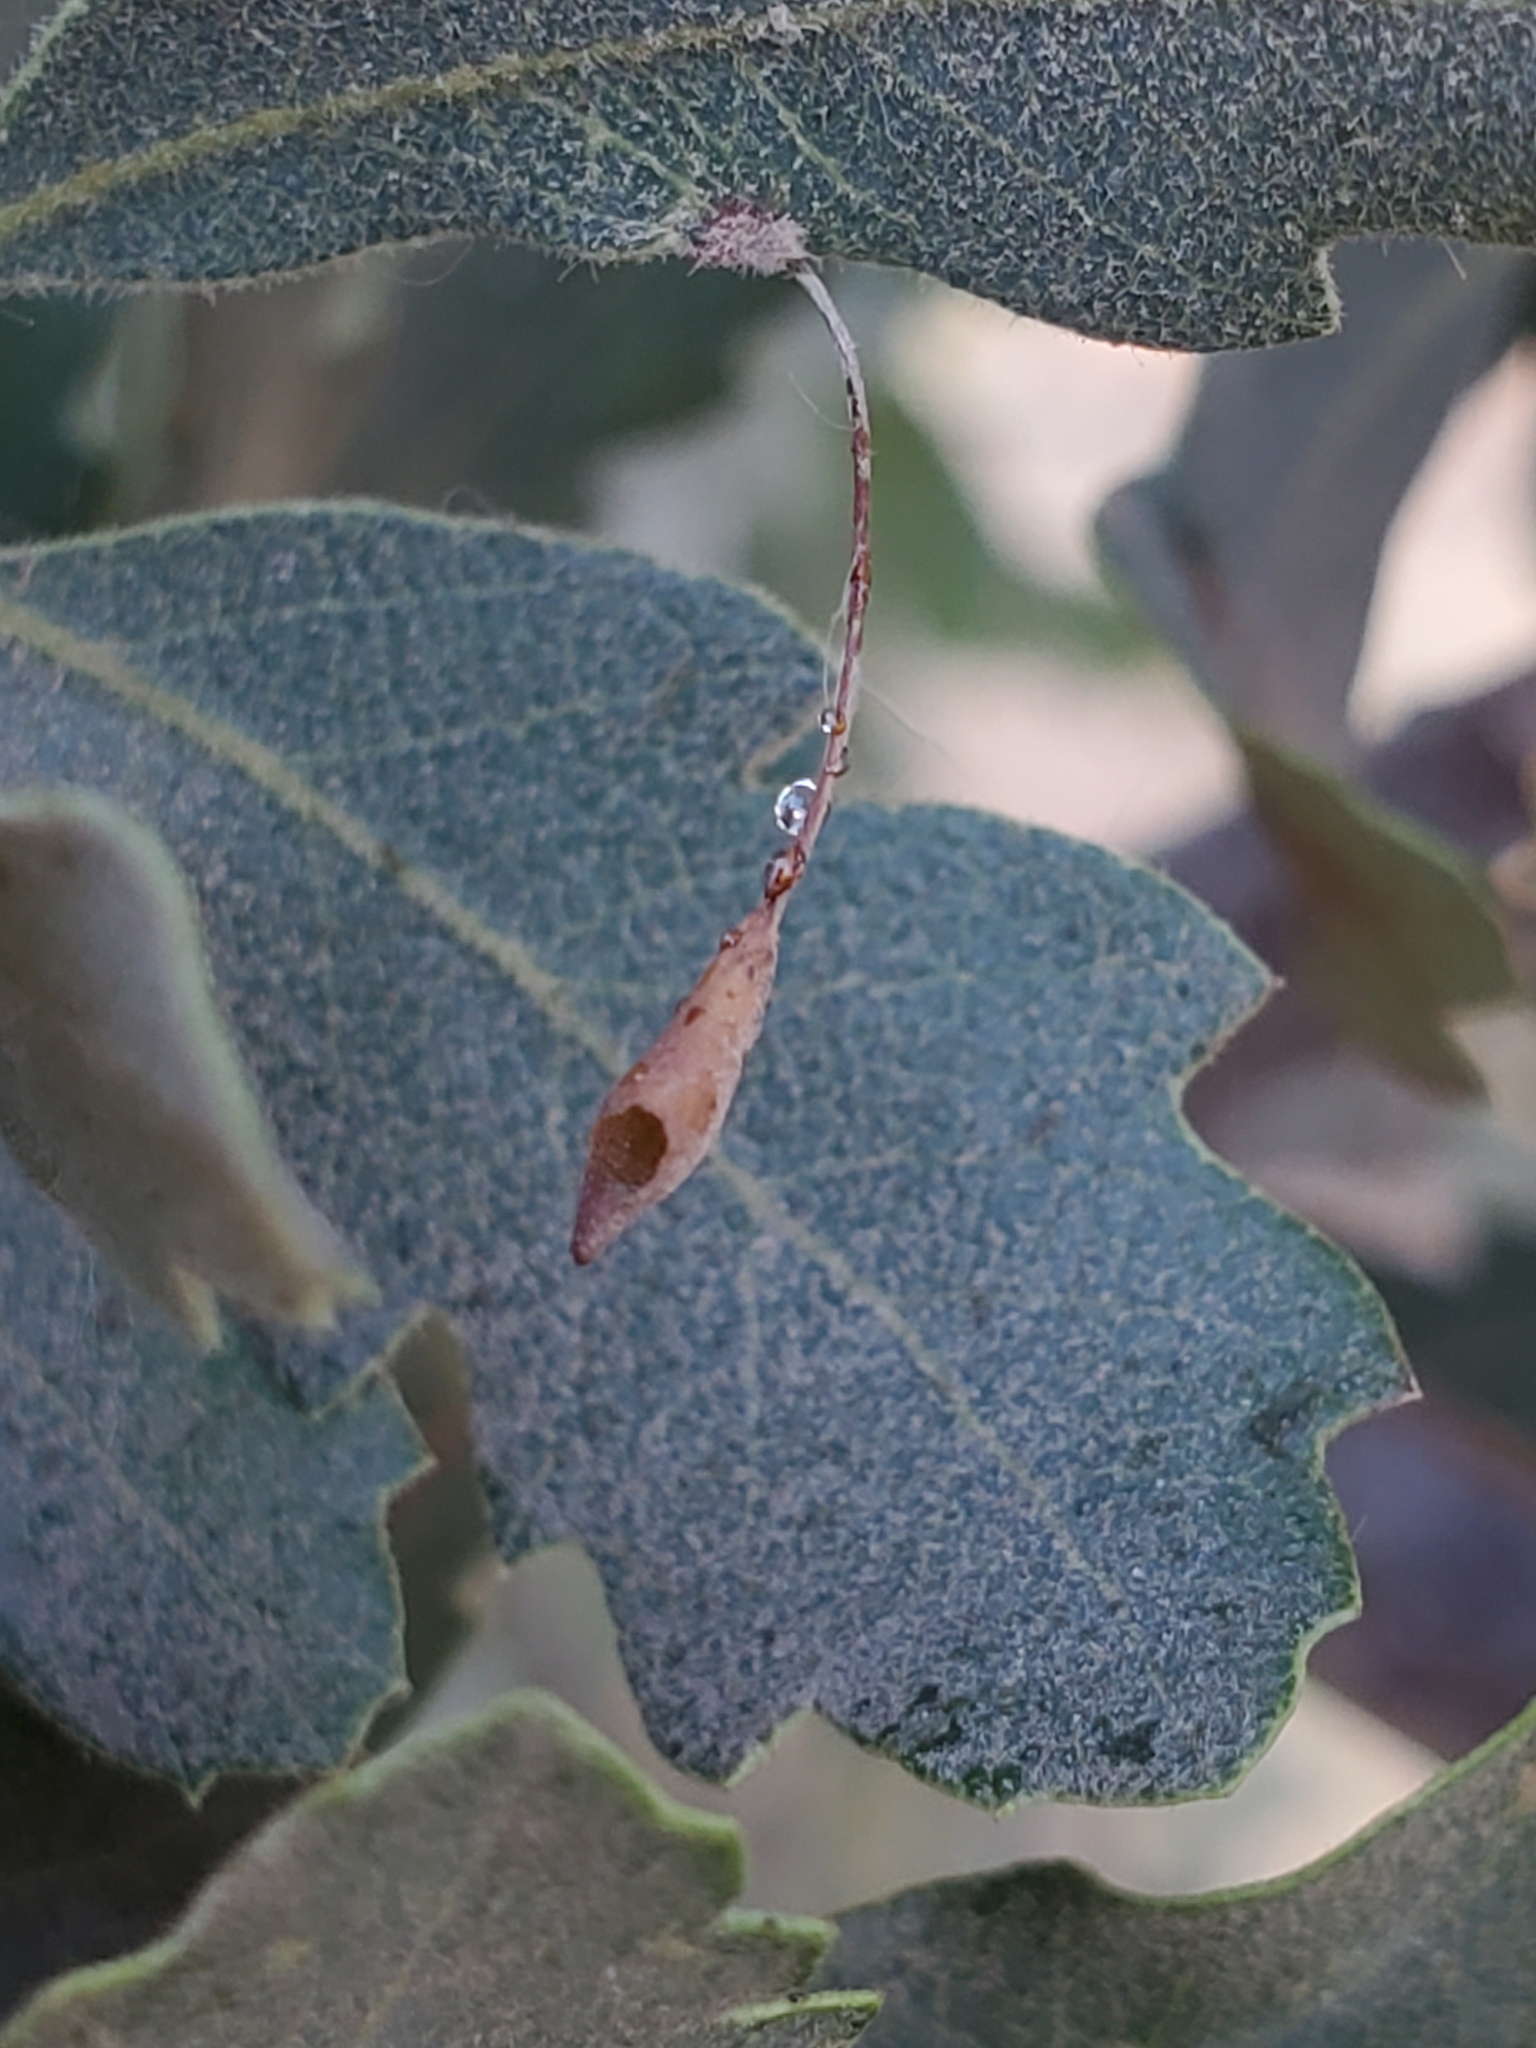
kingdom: Animalia
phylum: Arthropoda
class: Insecta
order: Hymenoptera
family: Cynipidae
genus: Andricus
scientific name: Andricus
